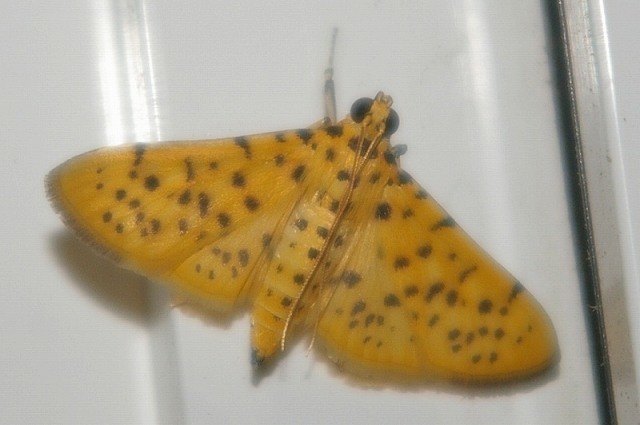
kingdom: Animalia
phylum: Arthropoda
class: Insecta
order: Lepidoptera
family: Crambidae
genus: Conogethes
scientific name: Conogethes punctiferalis
